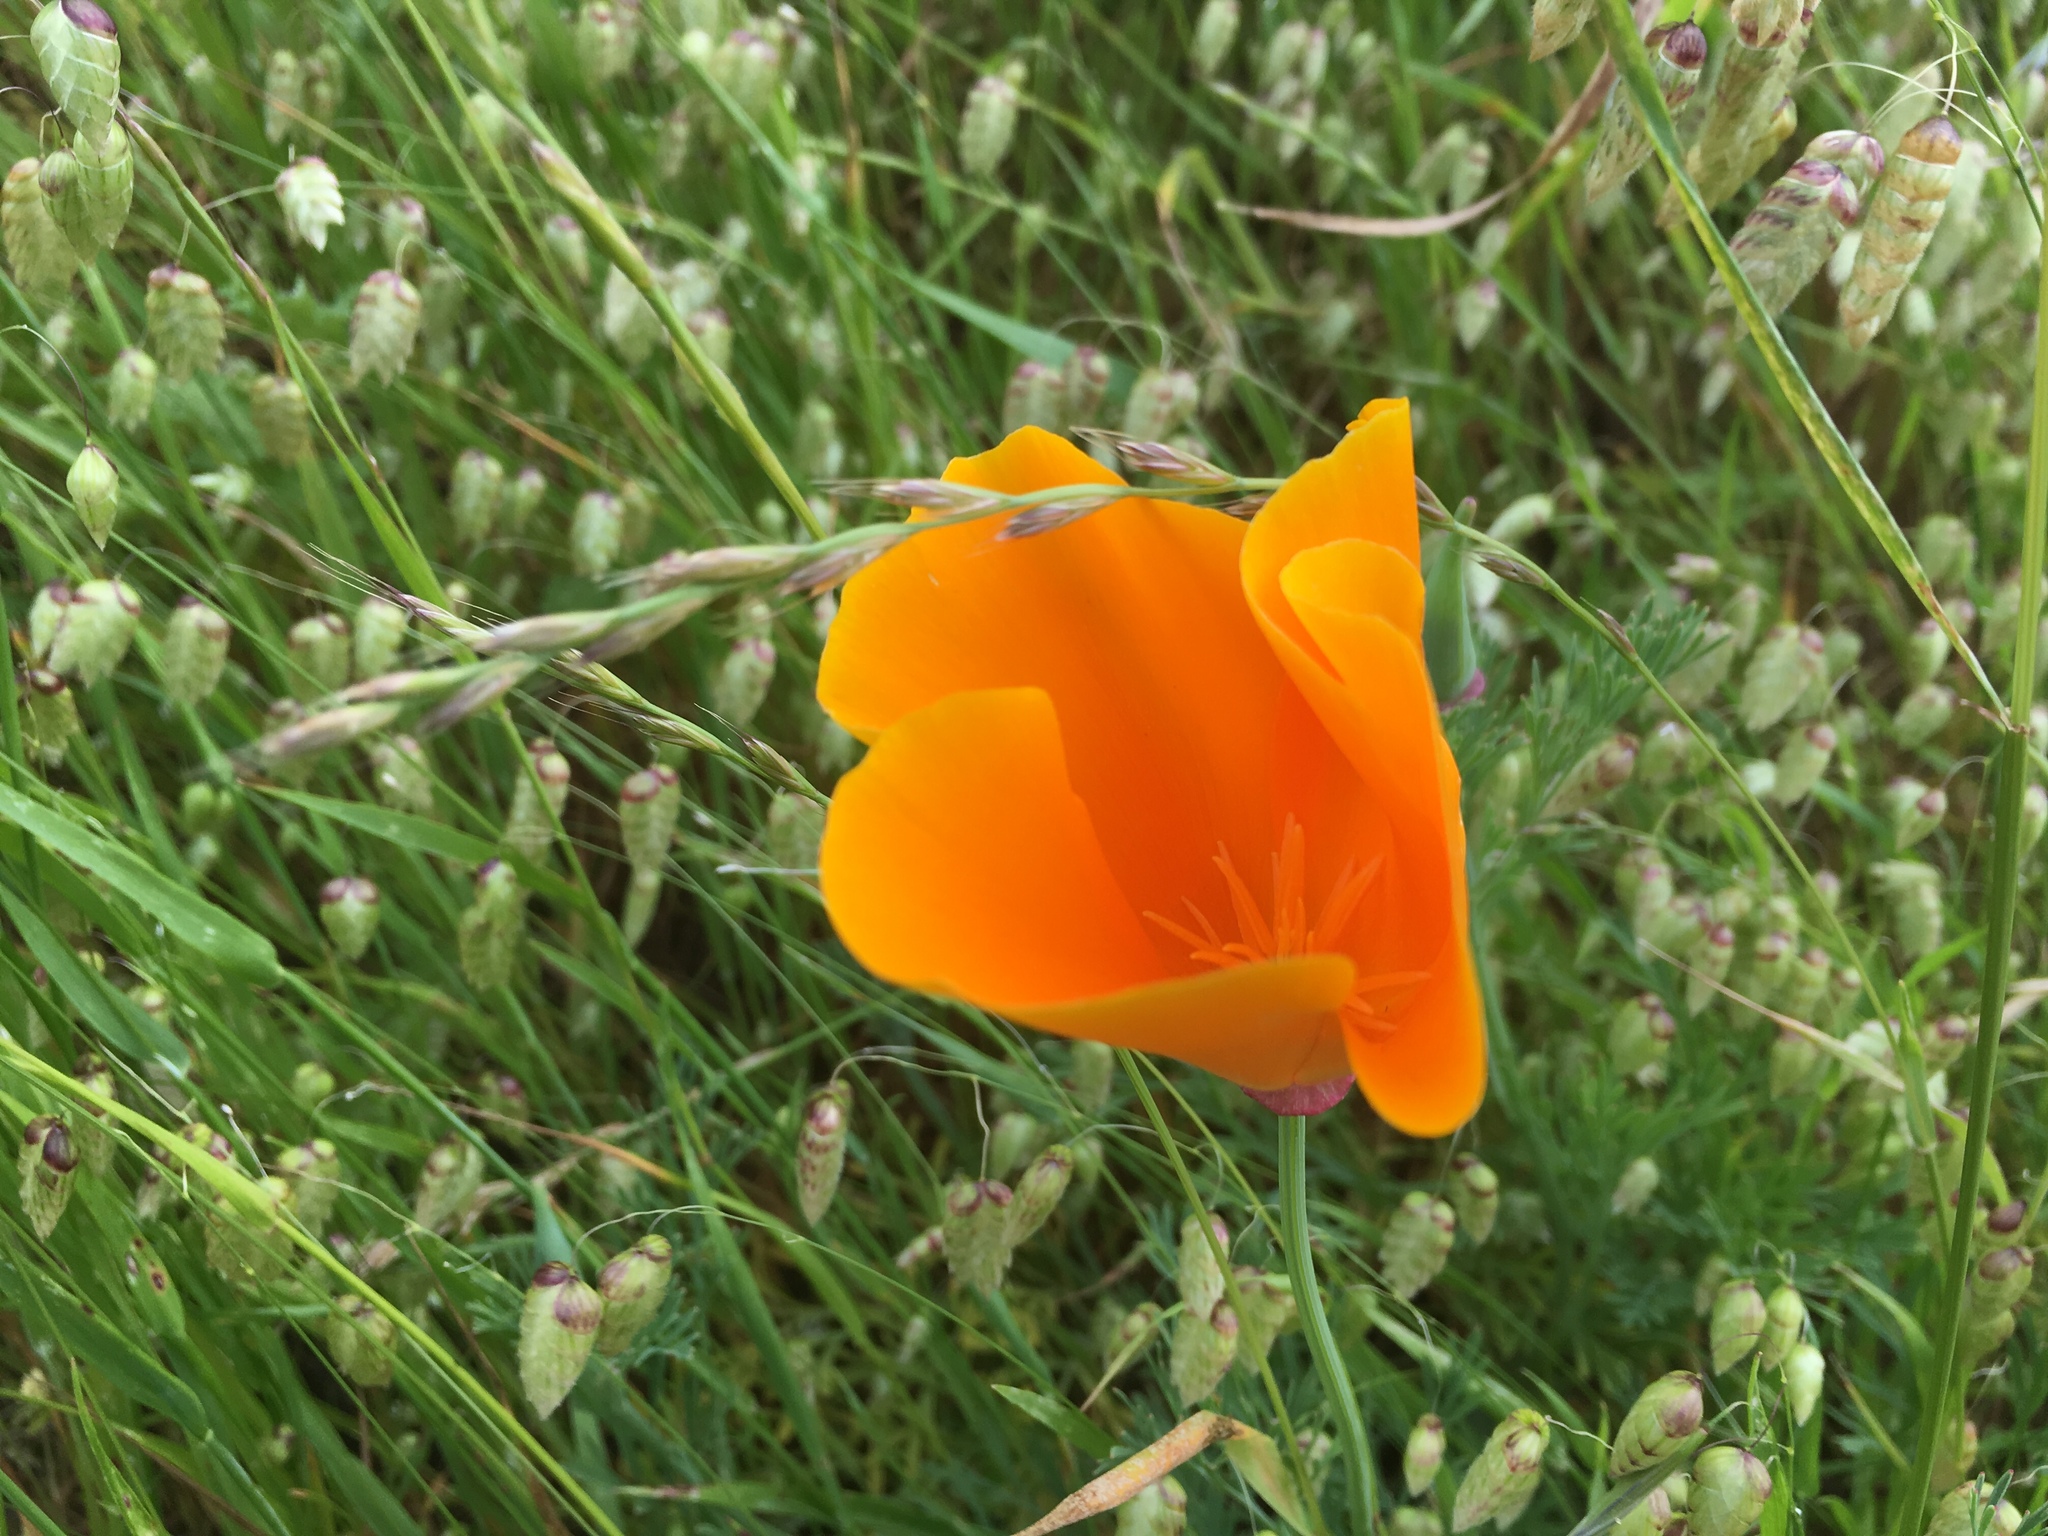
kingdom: Plantae
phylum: Tracheophyta
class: Magnoliopsida
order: Ranunculales
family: Papaveraceae
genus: Eschscholzia
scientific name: Eschscholzia californica
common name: California poppy
